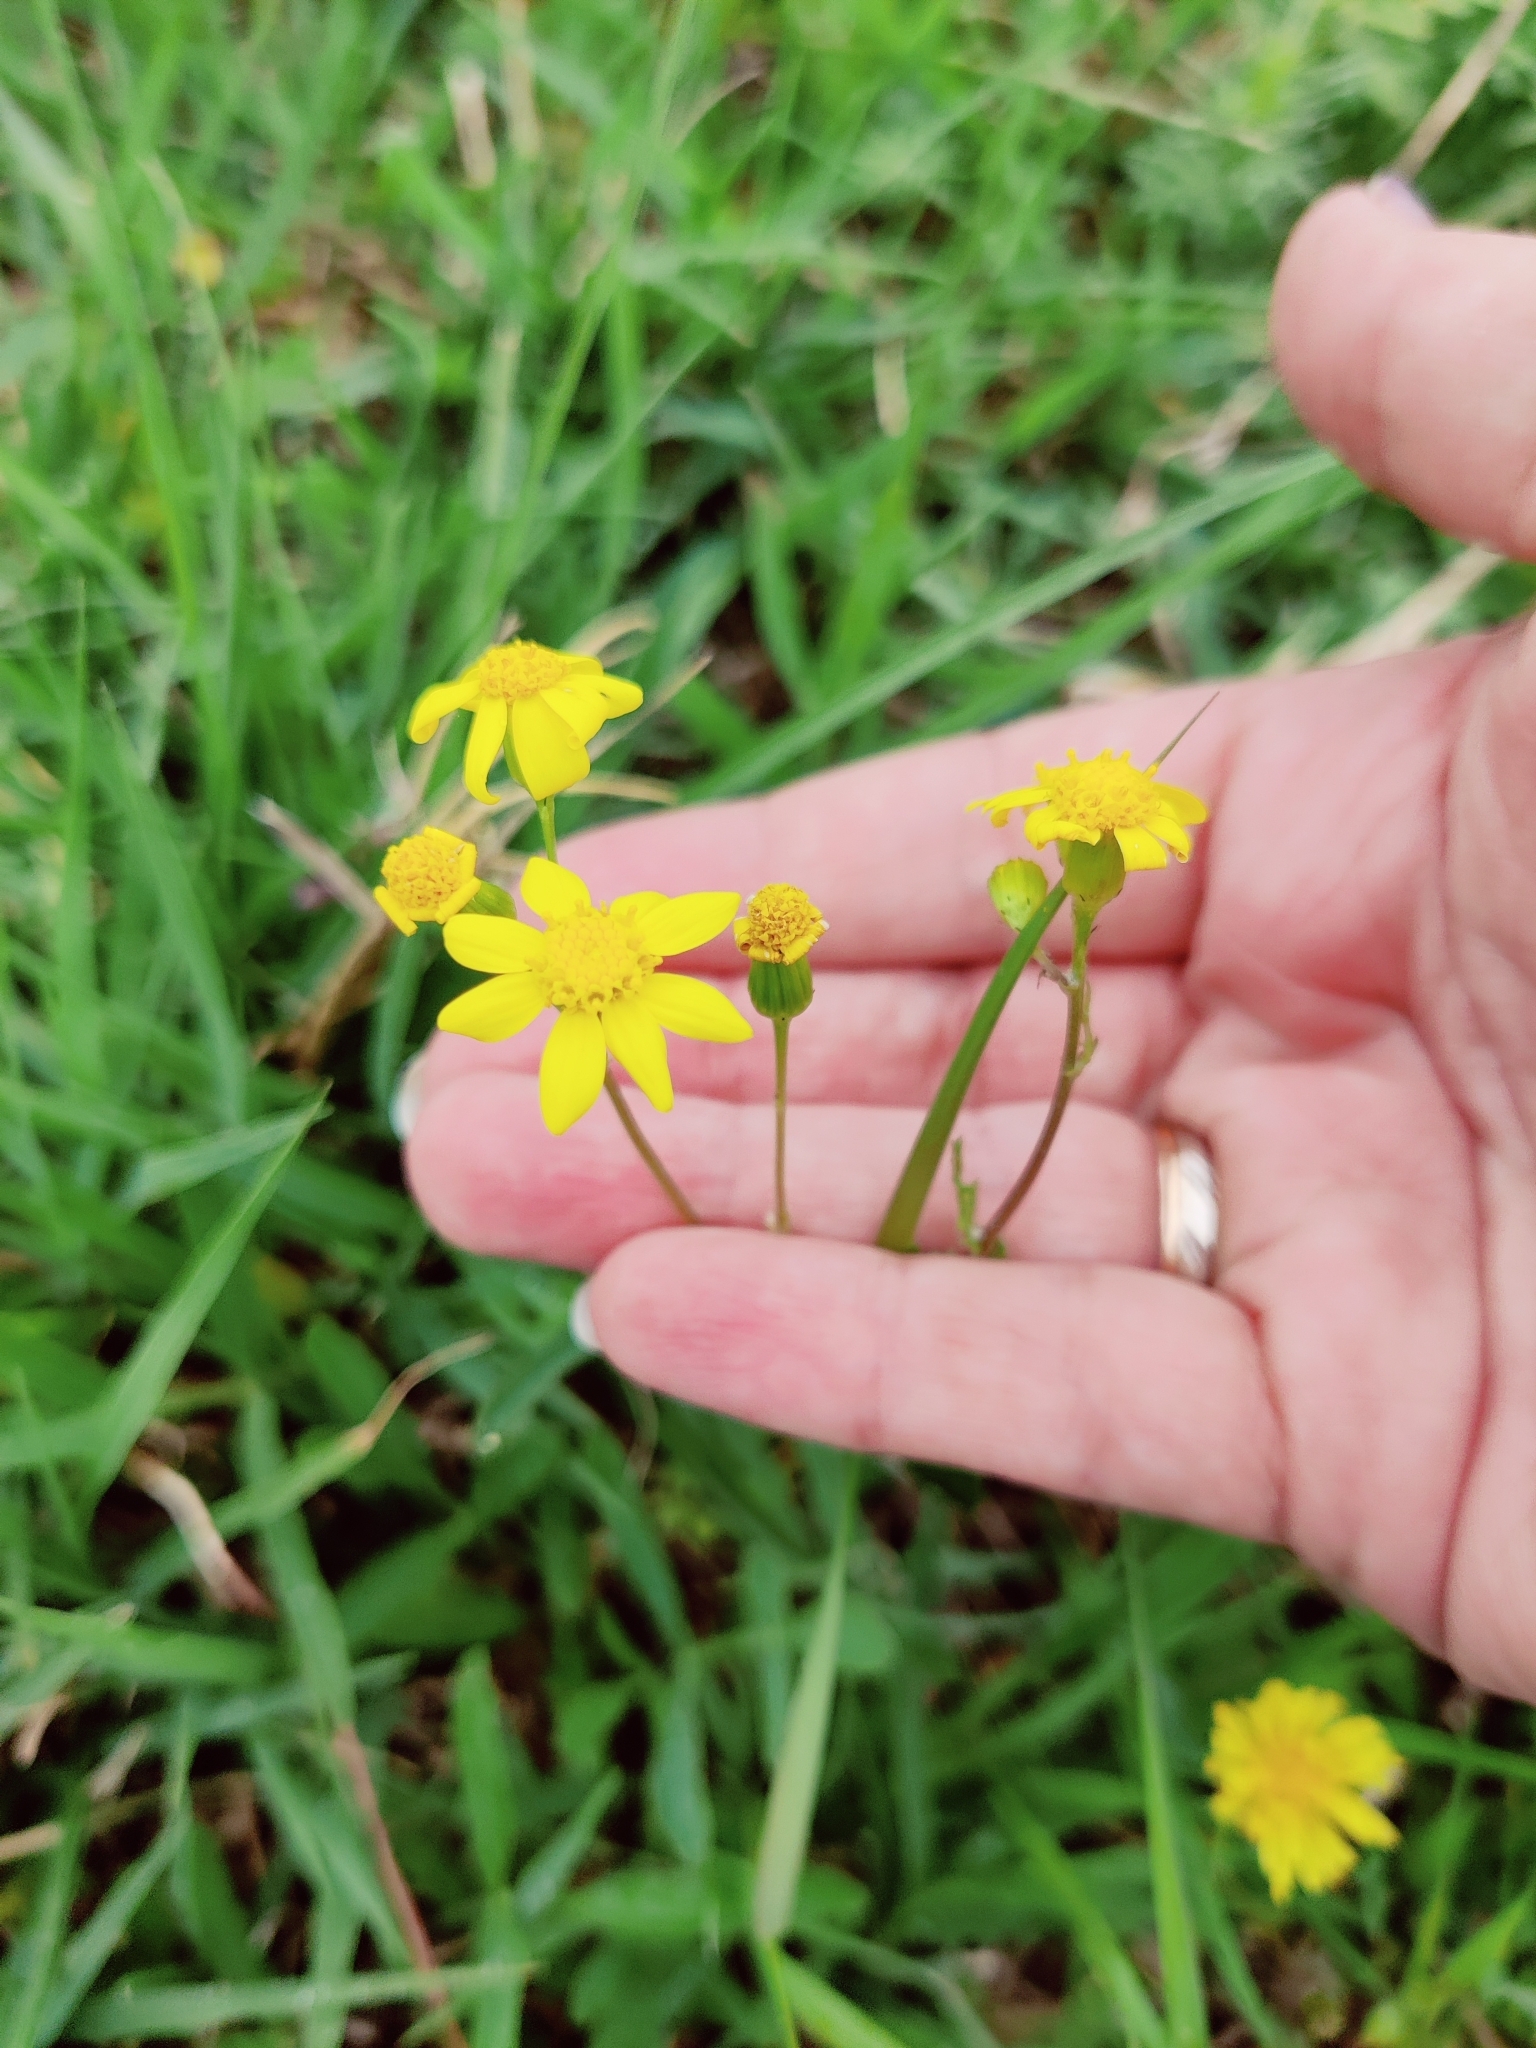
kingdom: Plantae
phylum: Tracheophyta
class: Magnoliopsida
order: Asterales
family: Asteraceae
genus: Senecio
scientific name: Senecio vernalis
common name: Eastern groundsel
